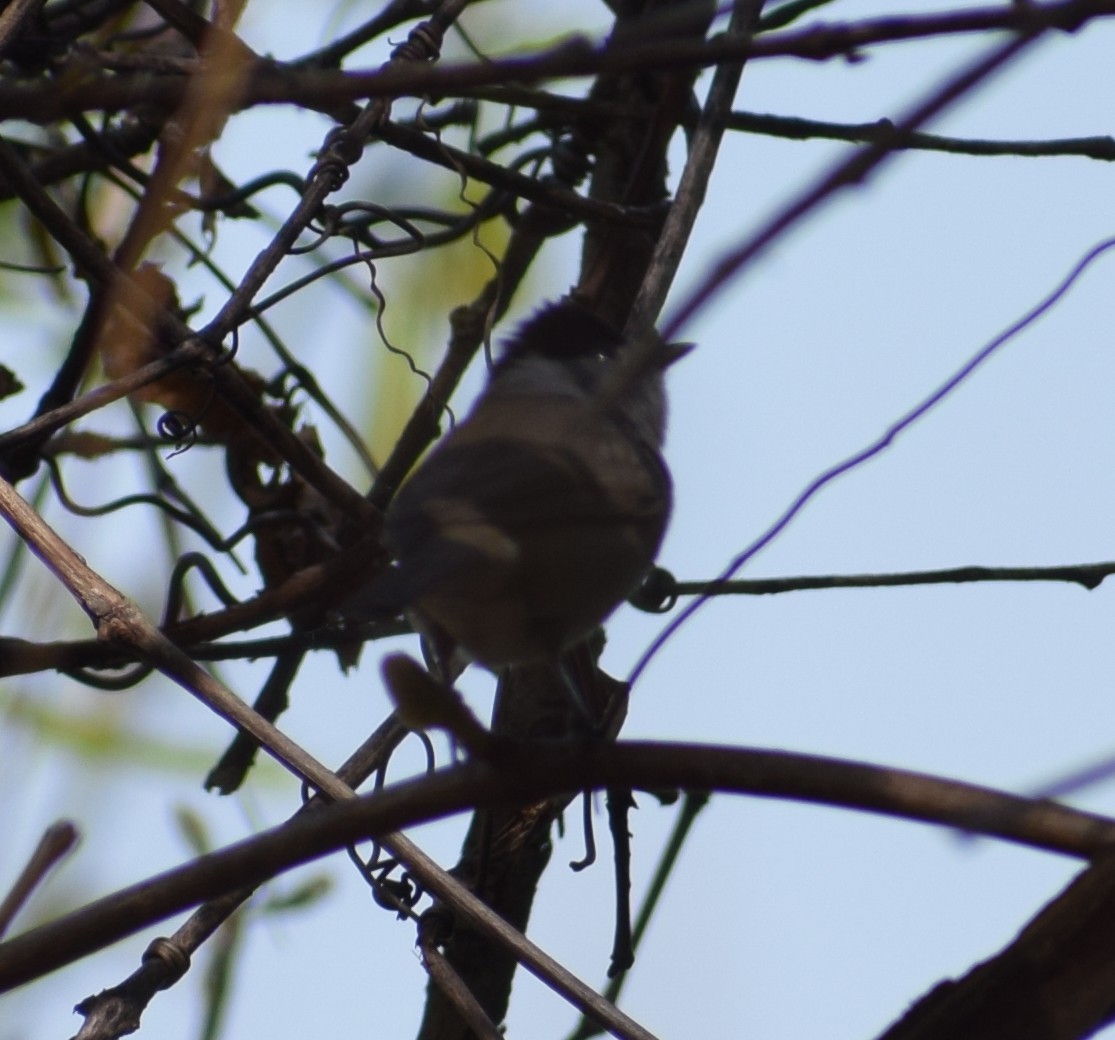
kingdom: Animalia
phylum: Chordata
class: Aves
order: Passeriformes
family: Sylviidae
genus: Sylvia
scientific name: Sylvia atricapilla
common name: Eurasian blackcap
